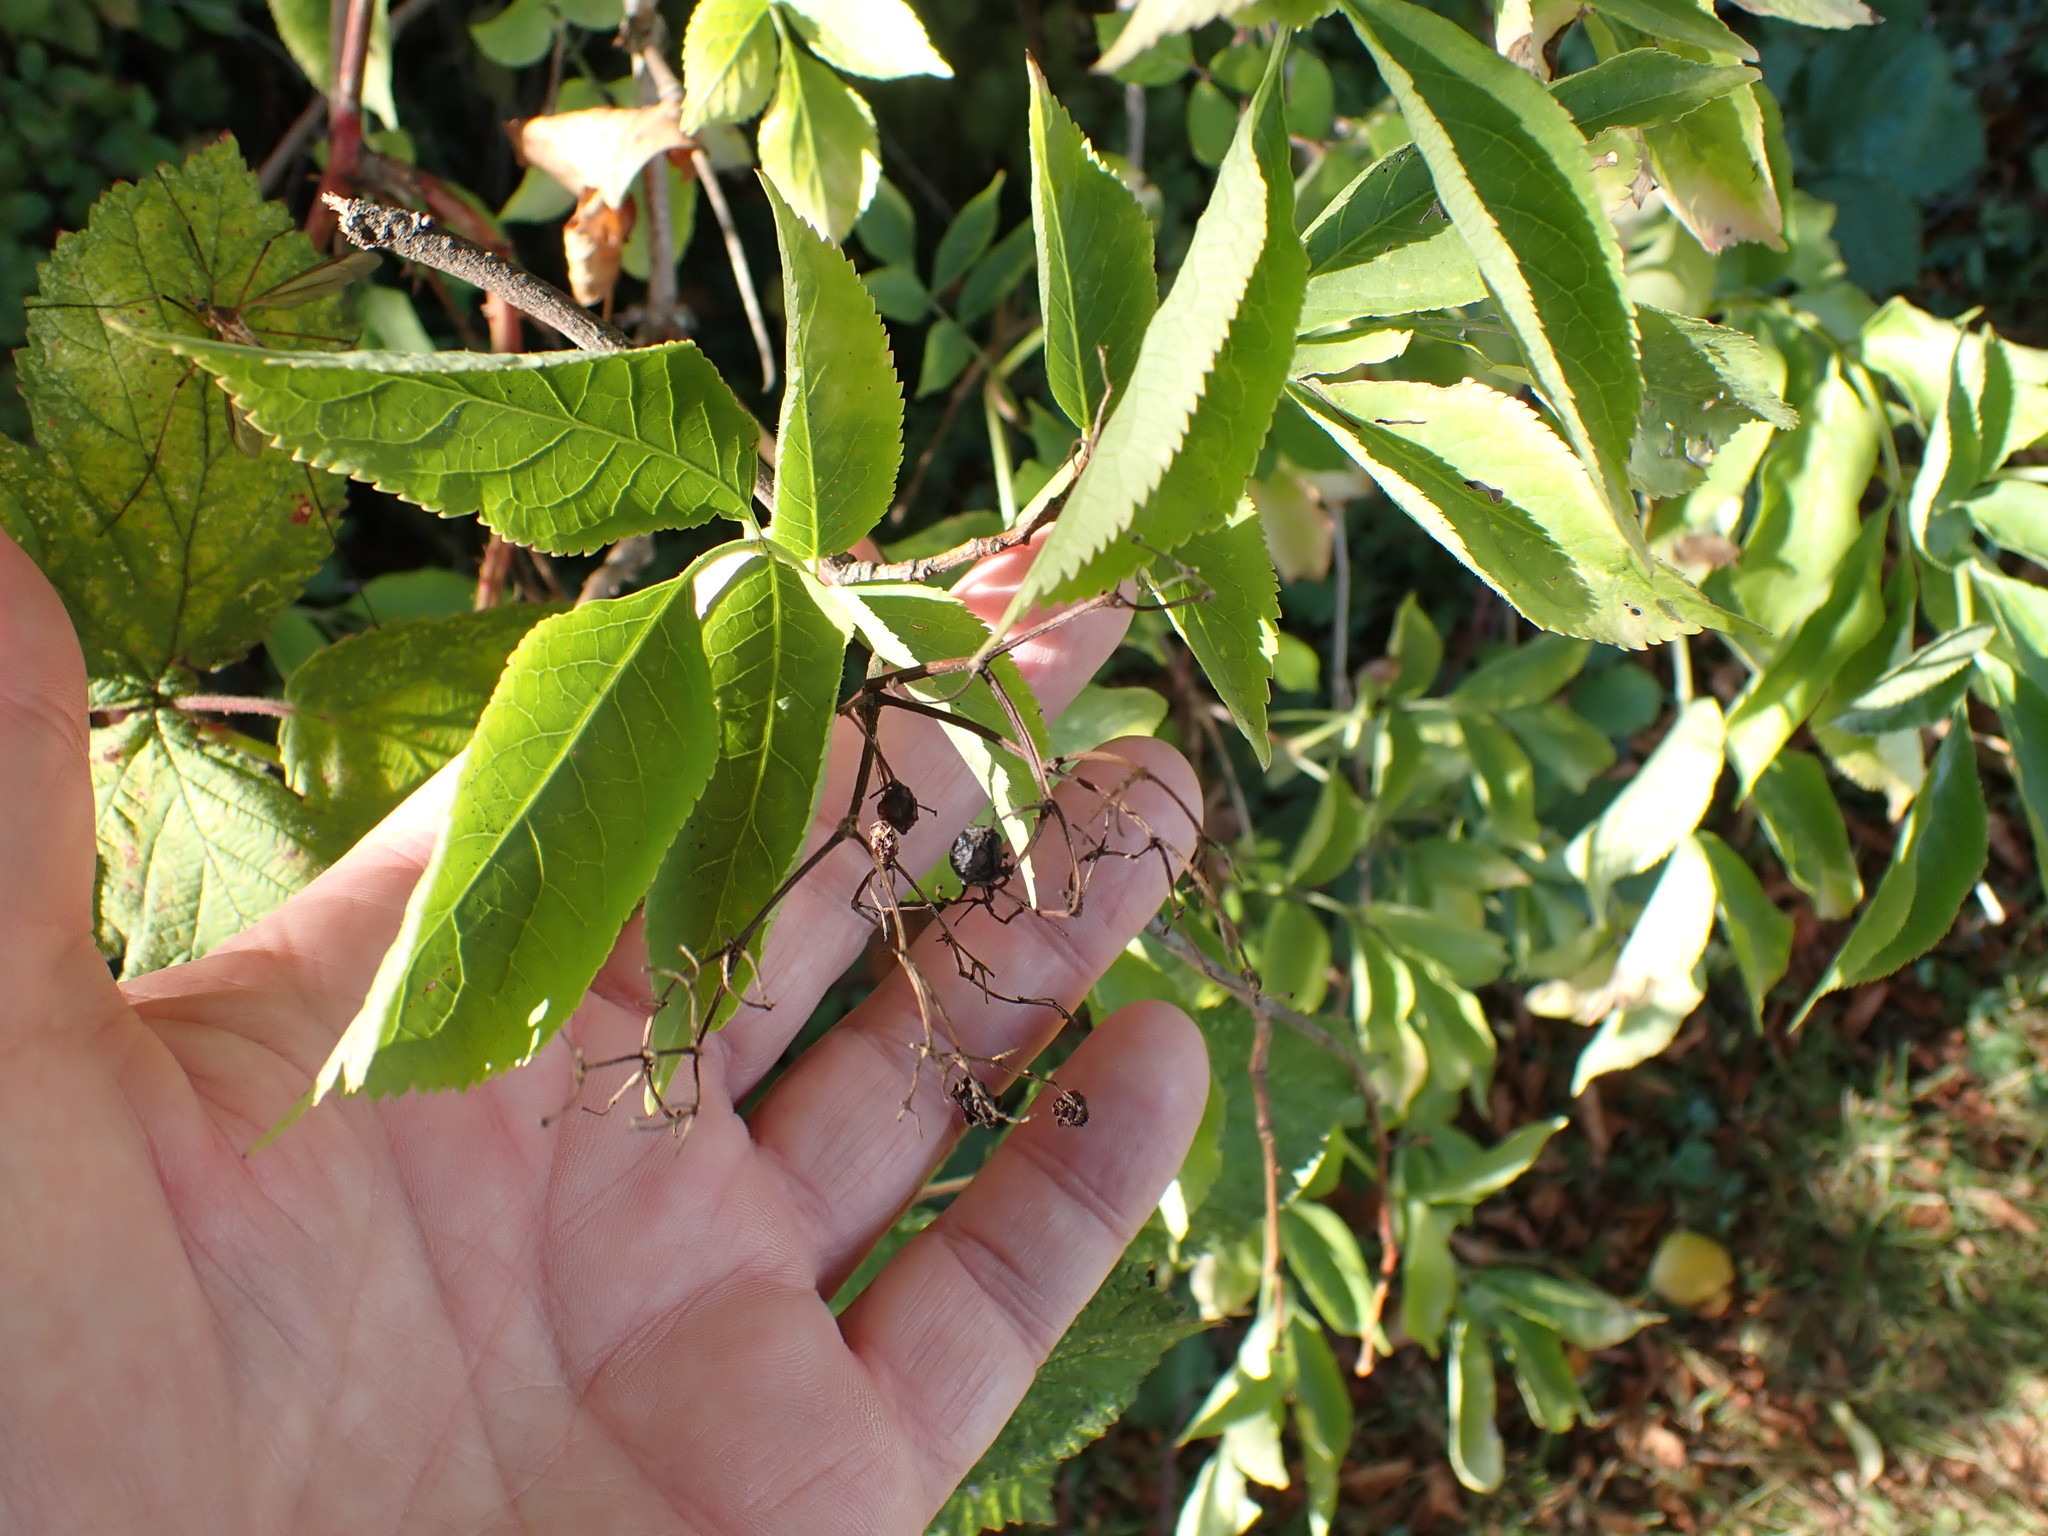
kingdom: Plantae
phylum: Tracheophyta
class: Magnoliopsida
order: Dipsacales
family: Viburnaceae
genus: Sambucus
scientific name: Sambucus nigra
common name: Elder
